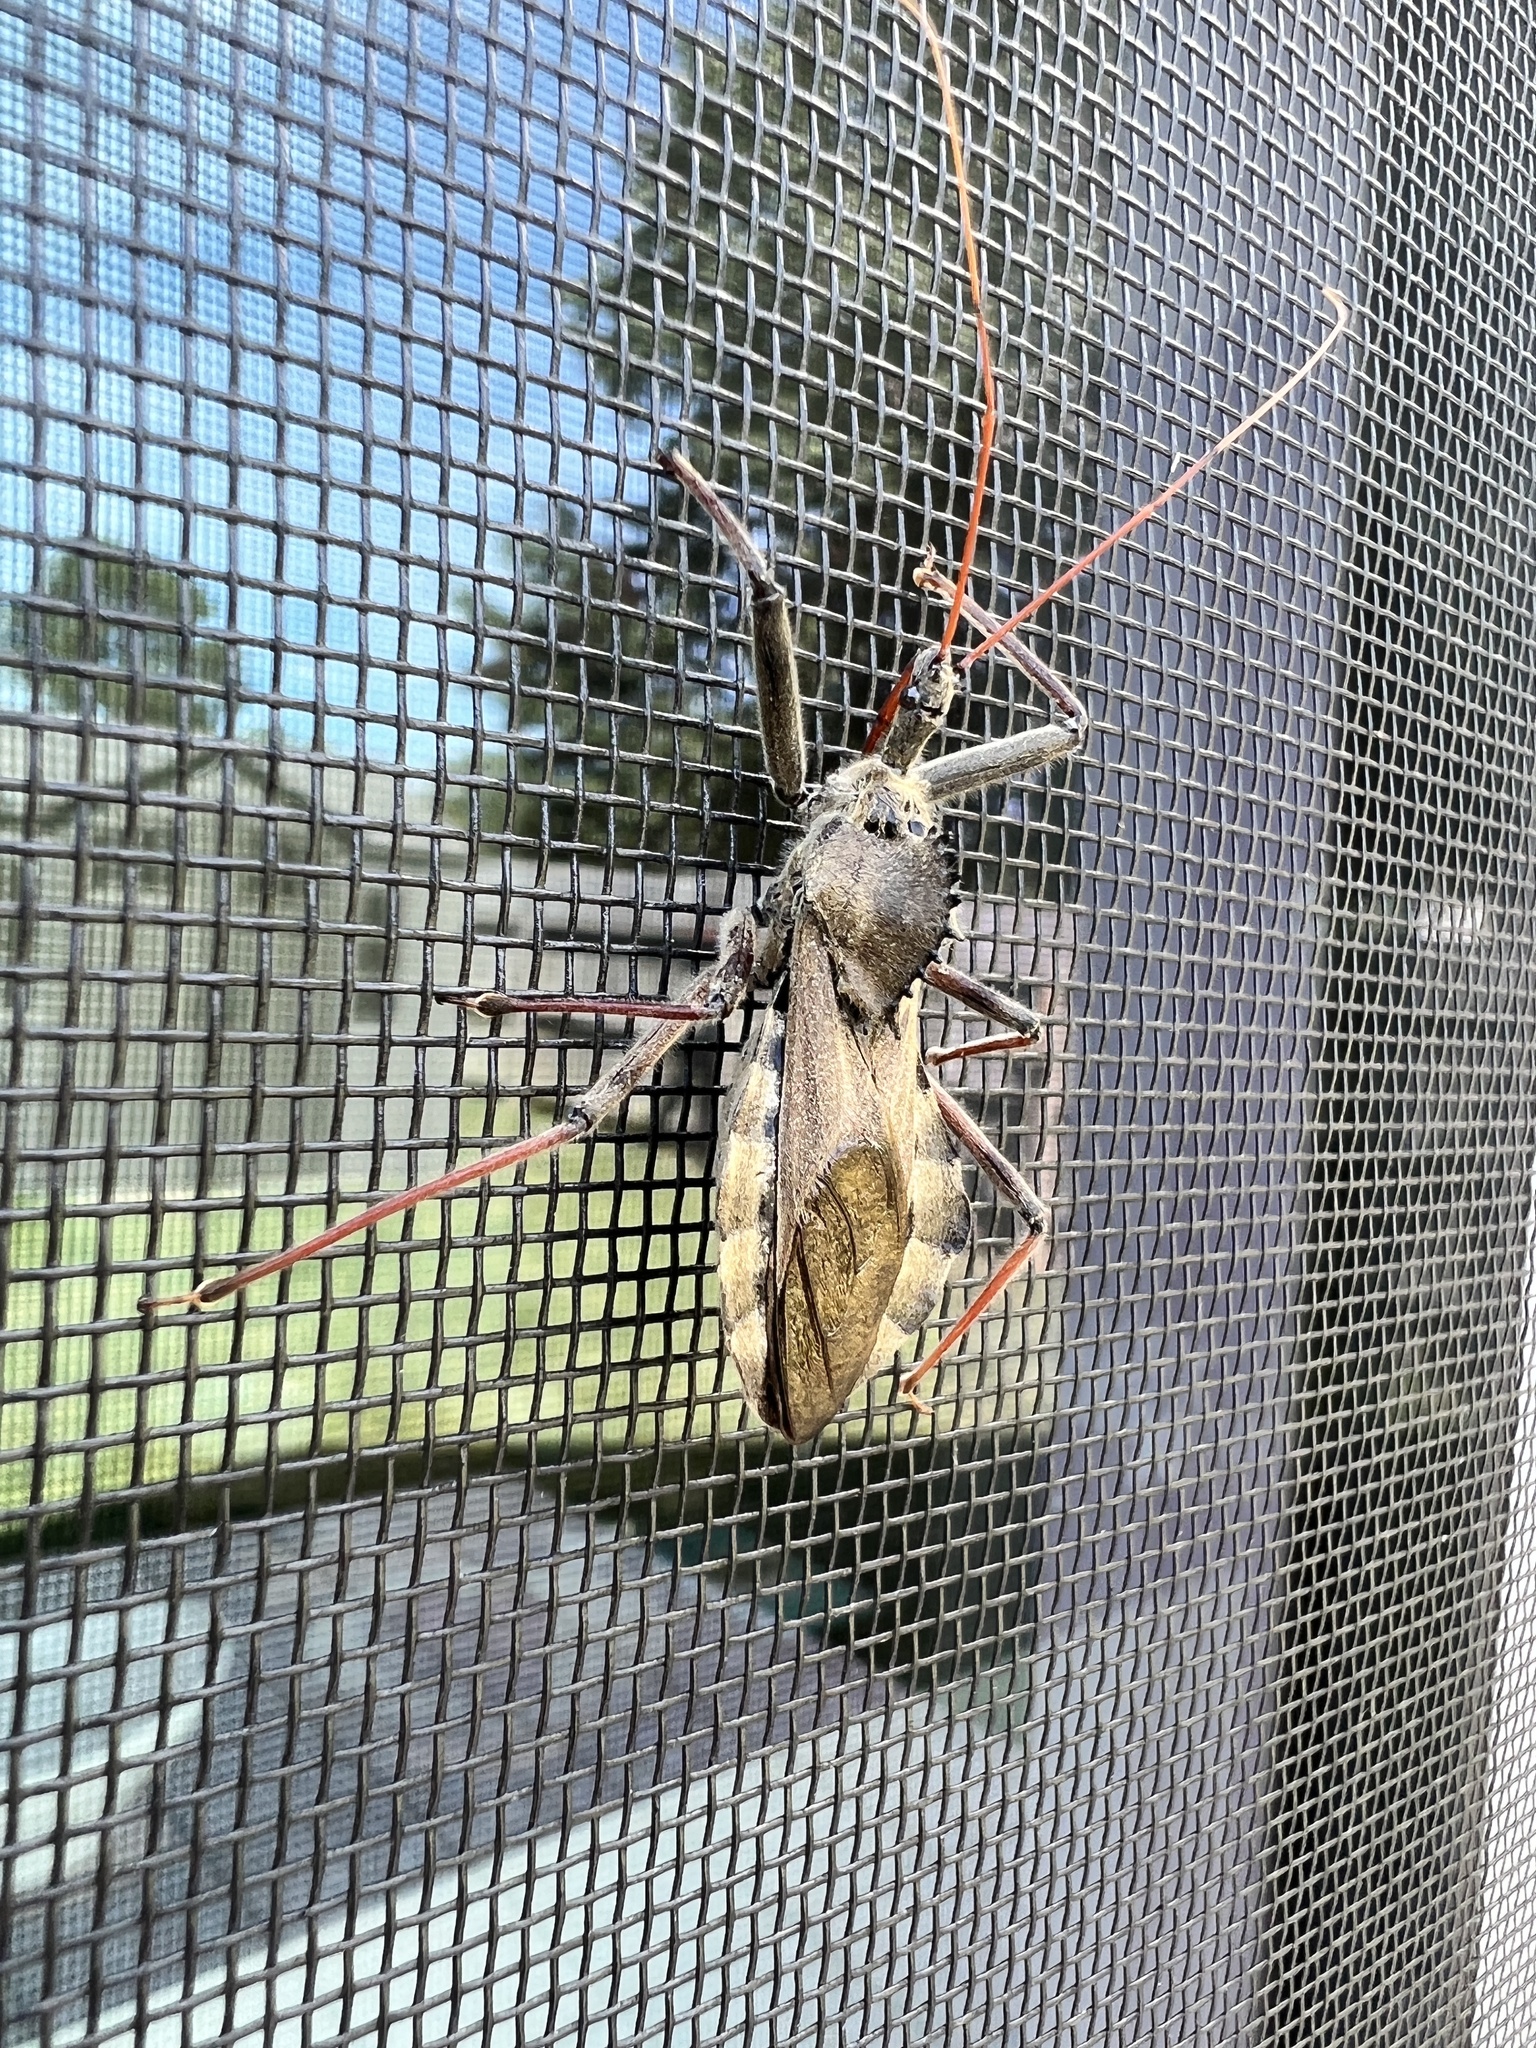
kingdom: Animalia
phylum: Arthropoda
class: Insecta
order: Hemiptera
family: Reduviidae
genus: Arilus
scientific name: Arilus cristatus
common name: North american wheel bug
